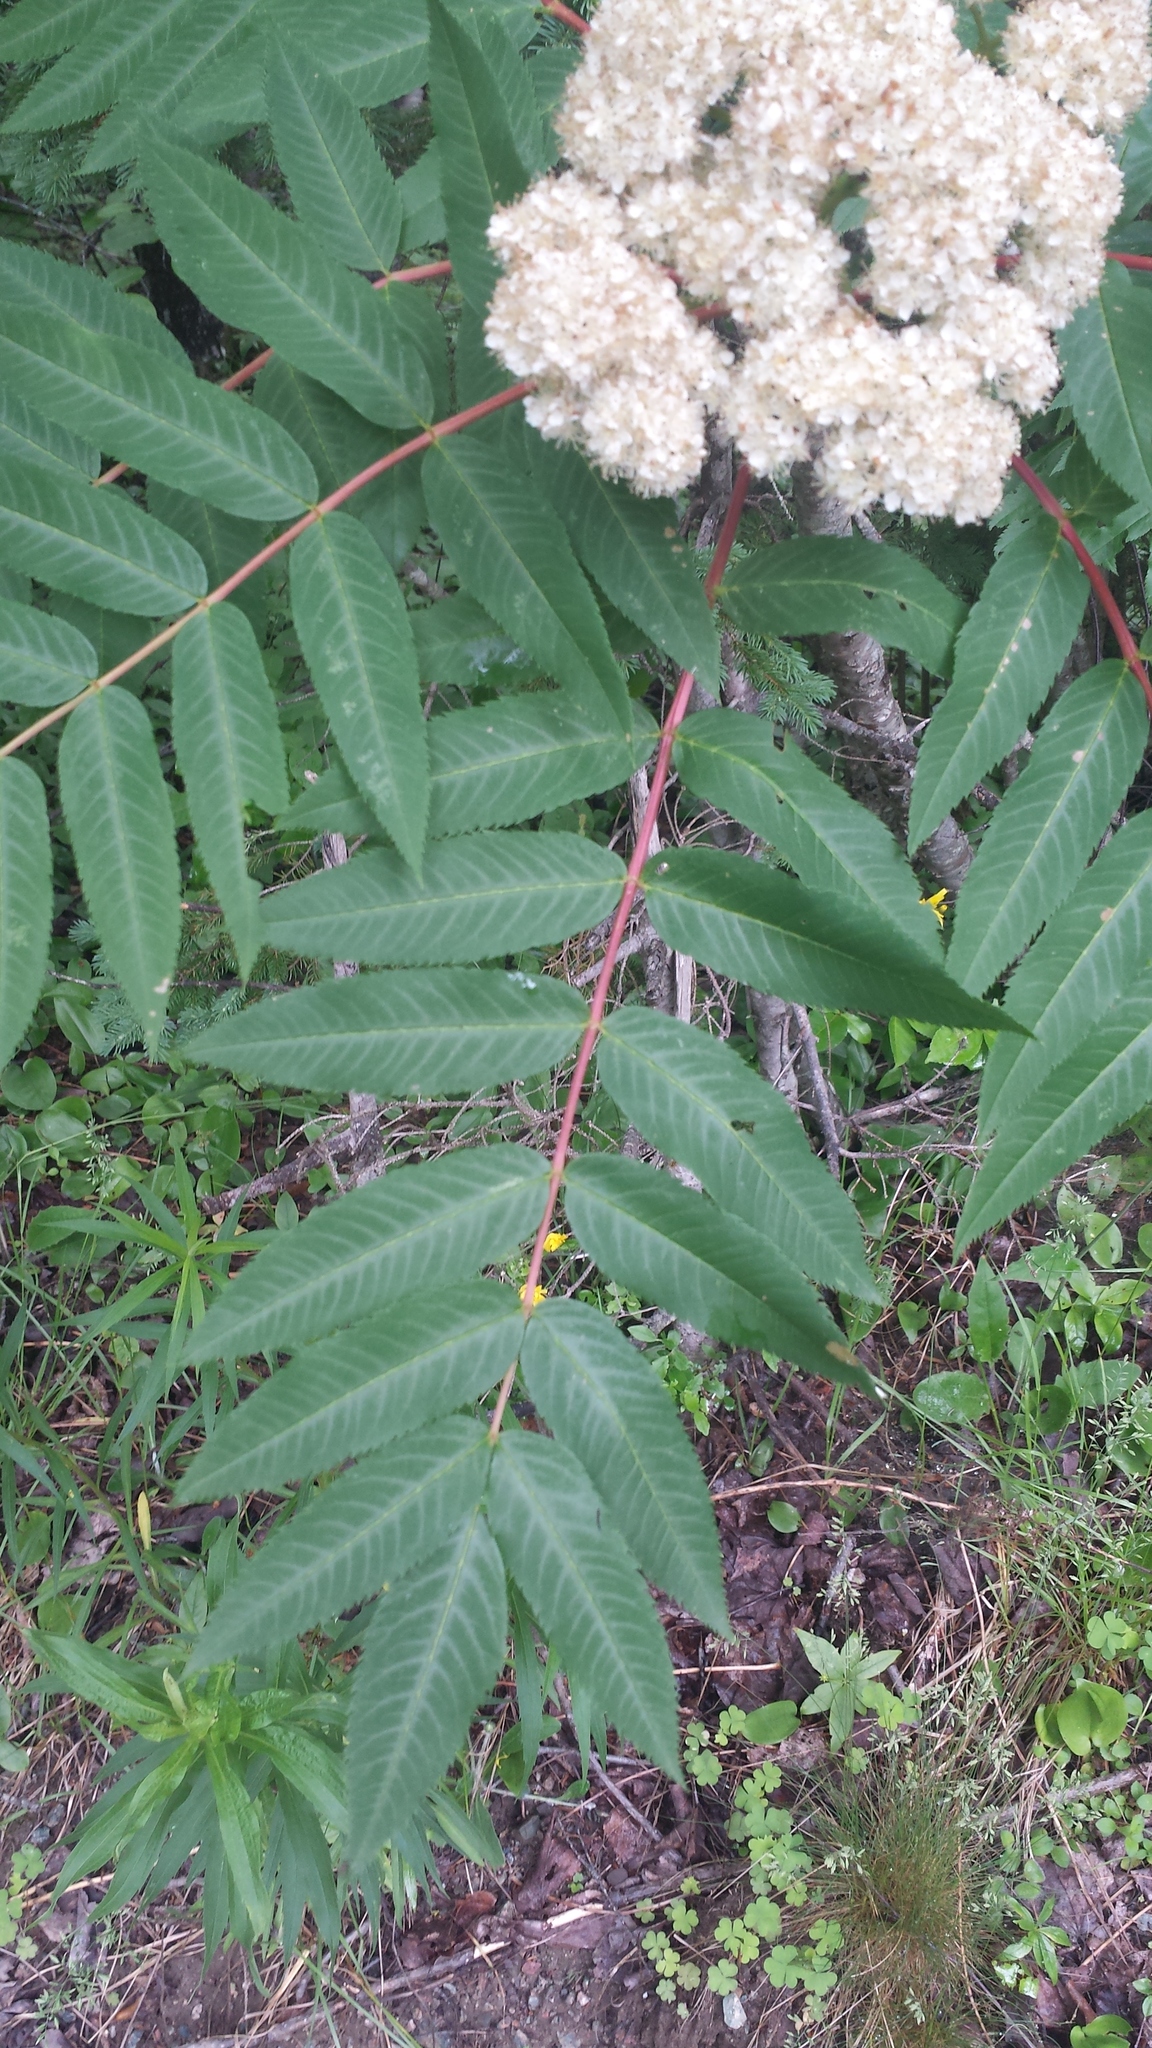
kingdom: Plantae
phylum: Tracheophyta
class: Magnoliopsida
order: Rosales
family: Rosaceae
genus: Sorbus
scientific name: Sorbus americana
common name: American mountain-ash
